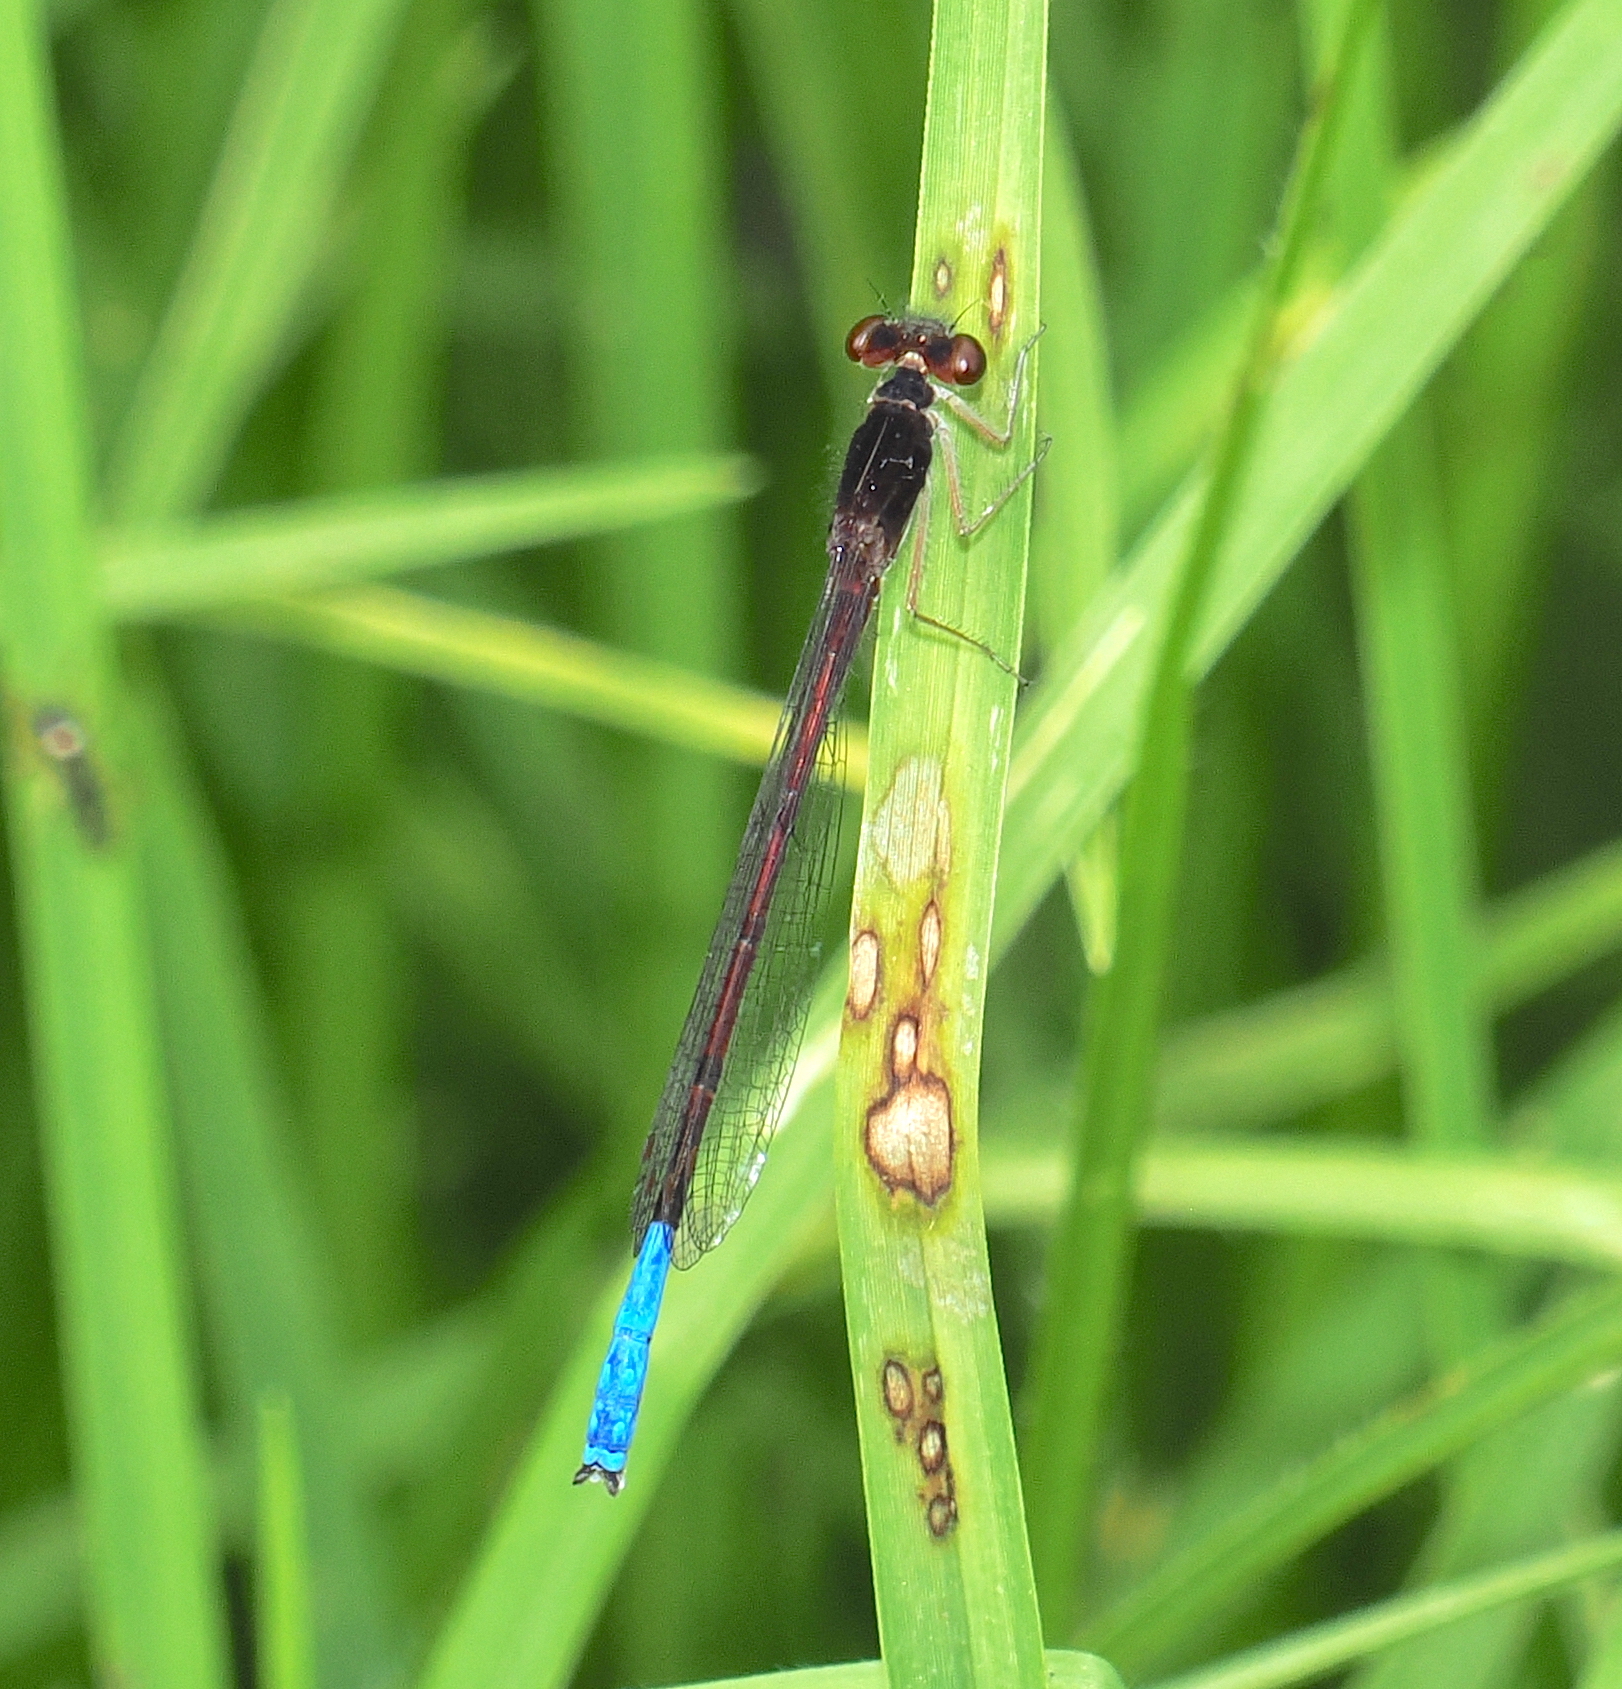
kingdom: Animalia
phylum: Arthropoda
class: Insecta
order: Odonata
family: Coenagrionidae
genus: Oxyallagma
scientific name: Oxyallagma dissidens
